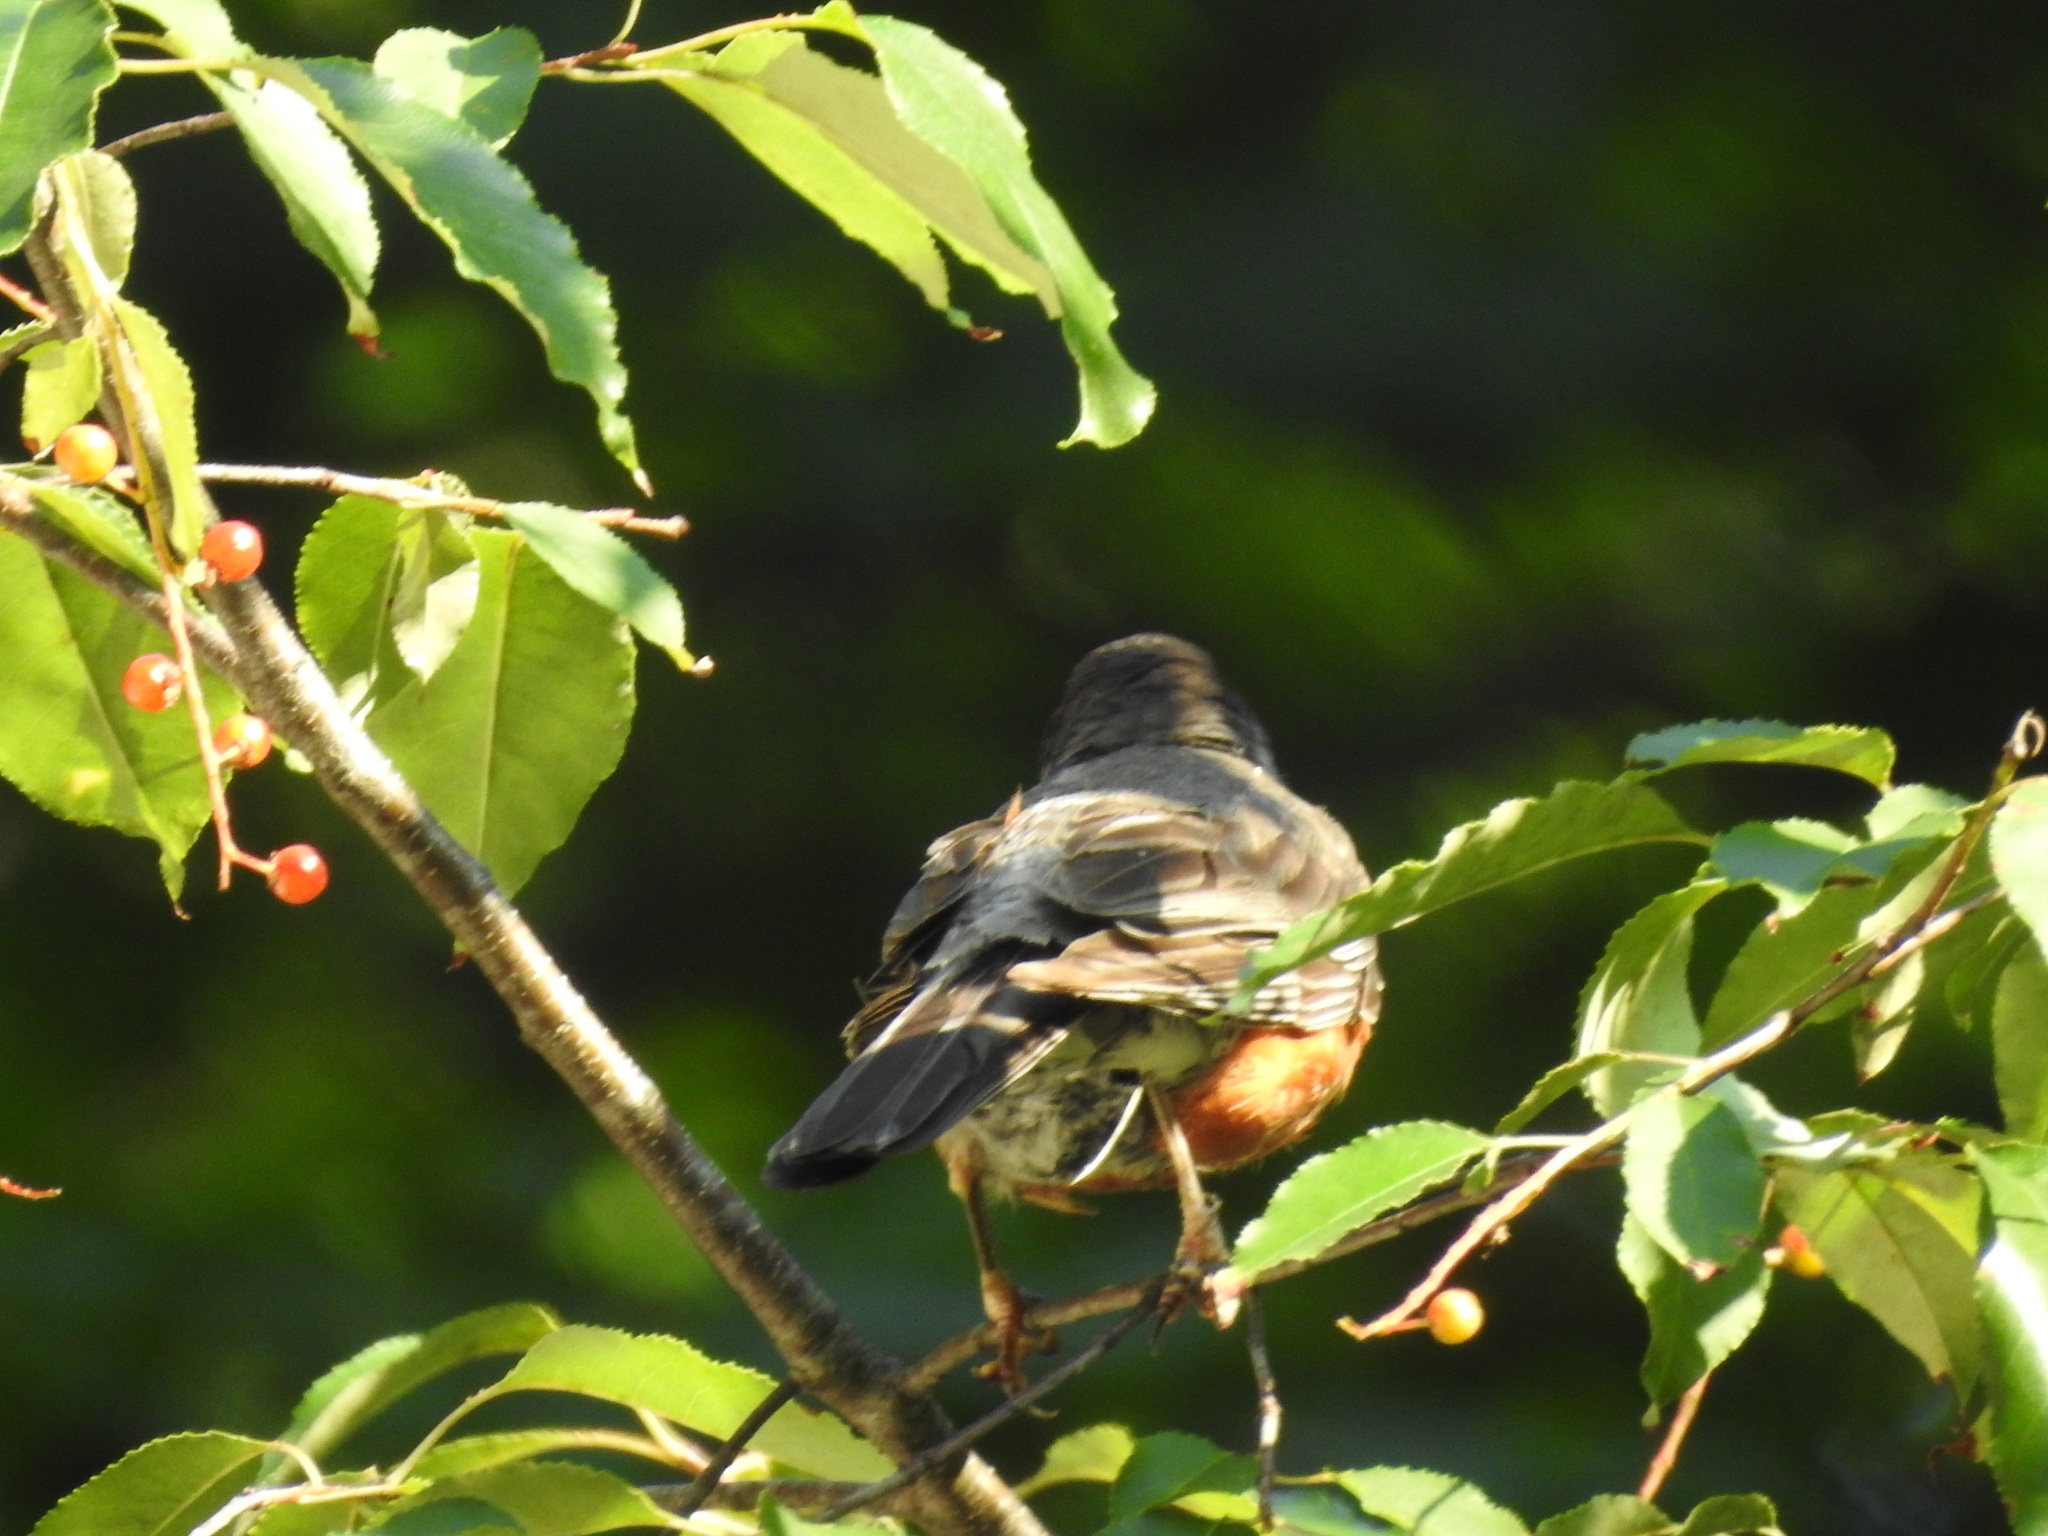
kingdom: Animalia
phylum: Chordata
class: Aves
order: Passeriformes
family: Turdidae
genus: Turdus
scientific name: Turdus migratorius
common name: American robin
